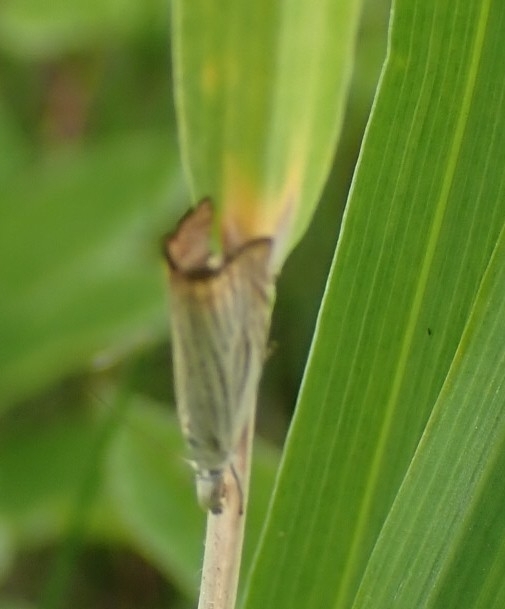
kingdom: Animalia
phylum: Arthropoda
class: Insecta
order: Lepidoptera
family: Crambidae
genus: Chrysoteuchia
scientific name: Chrysoteuchia culmella
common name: Garden grass-veneer
